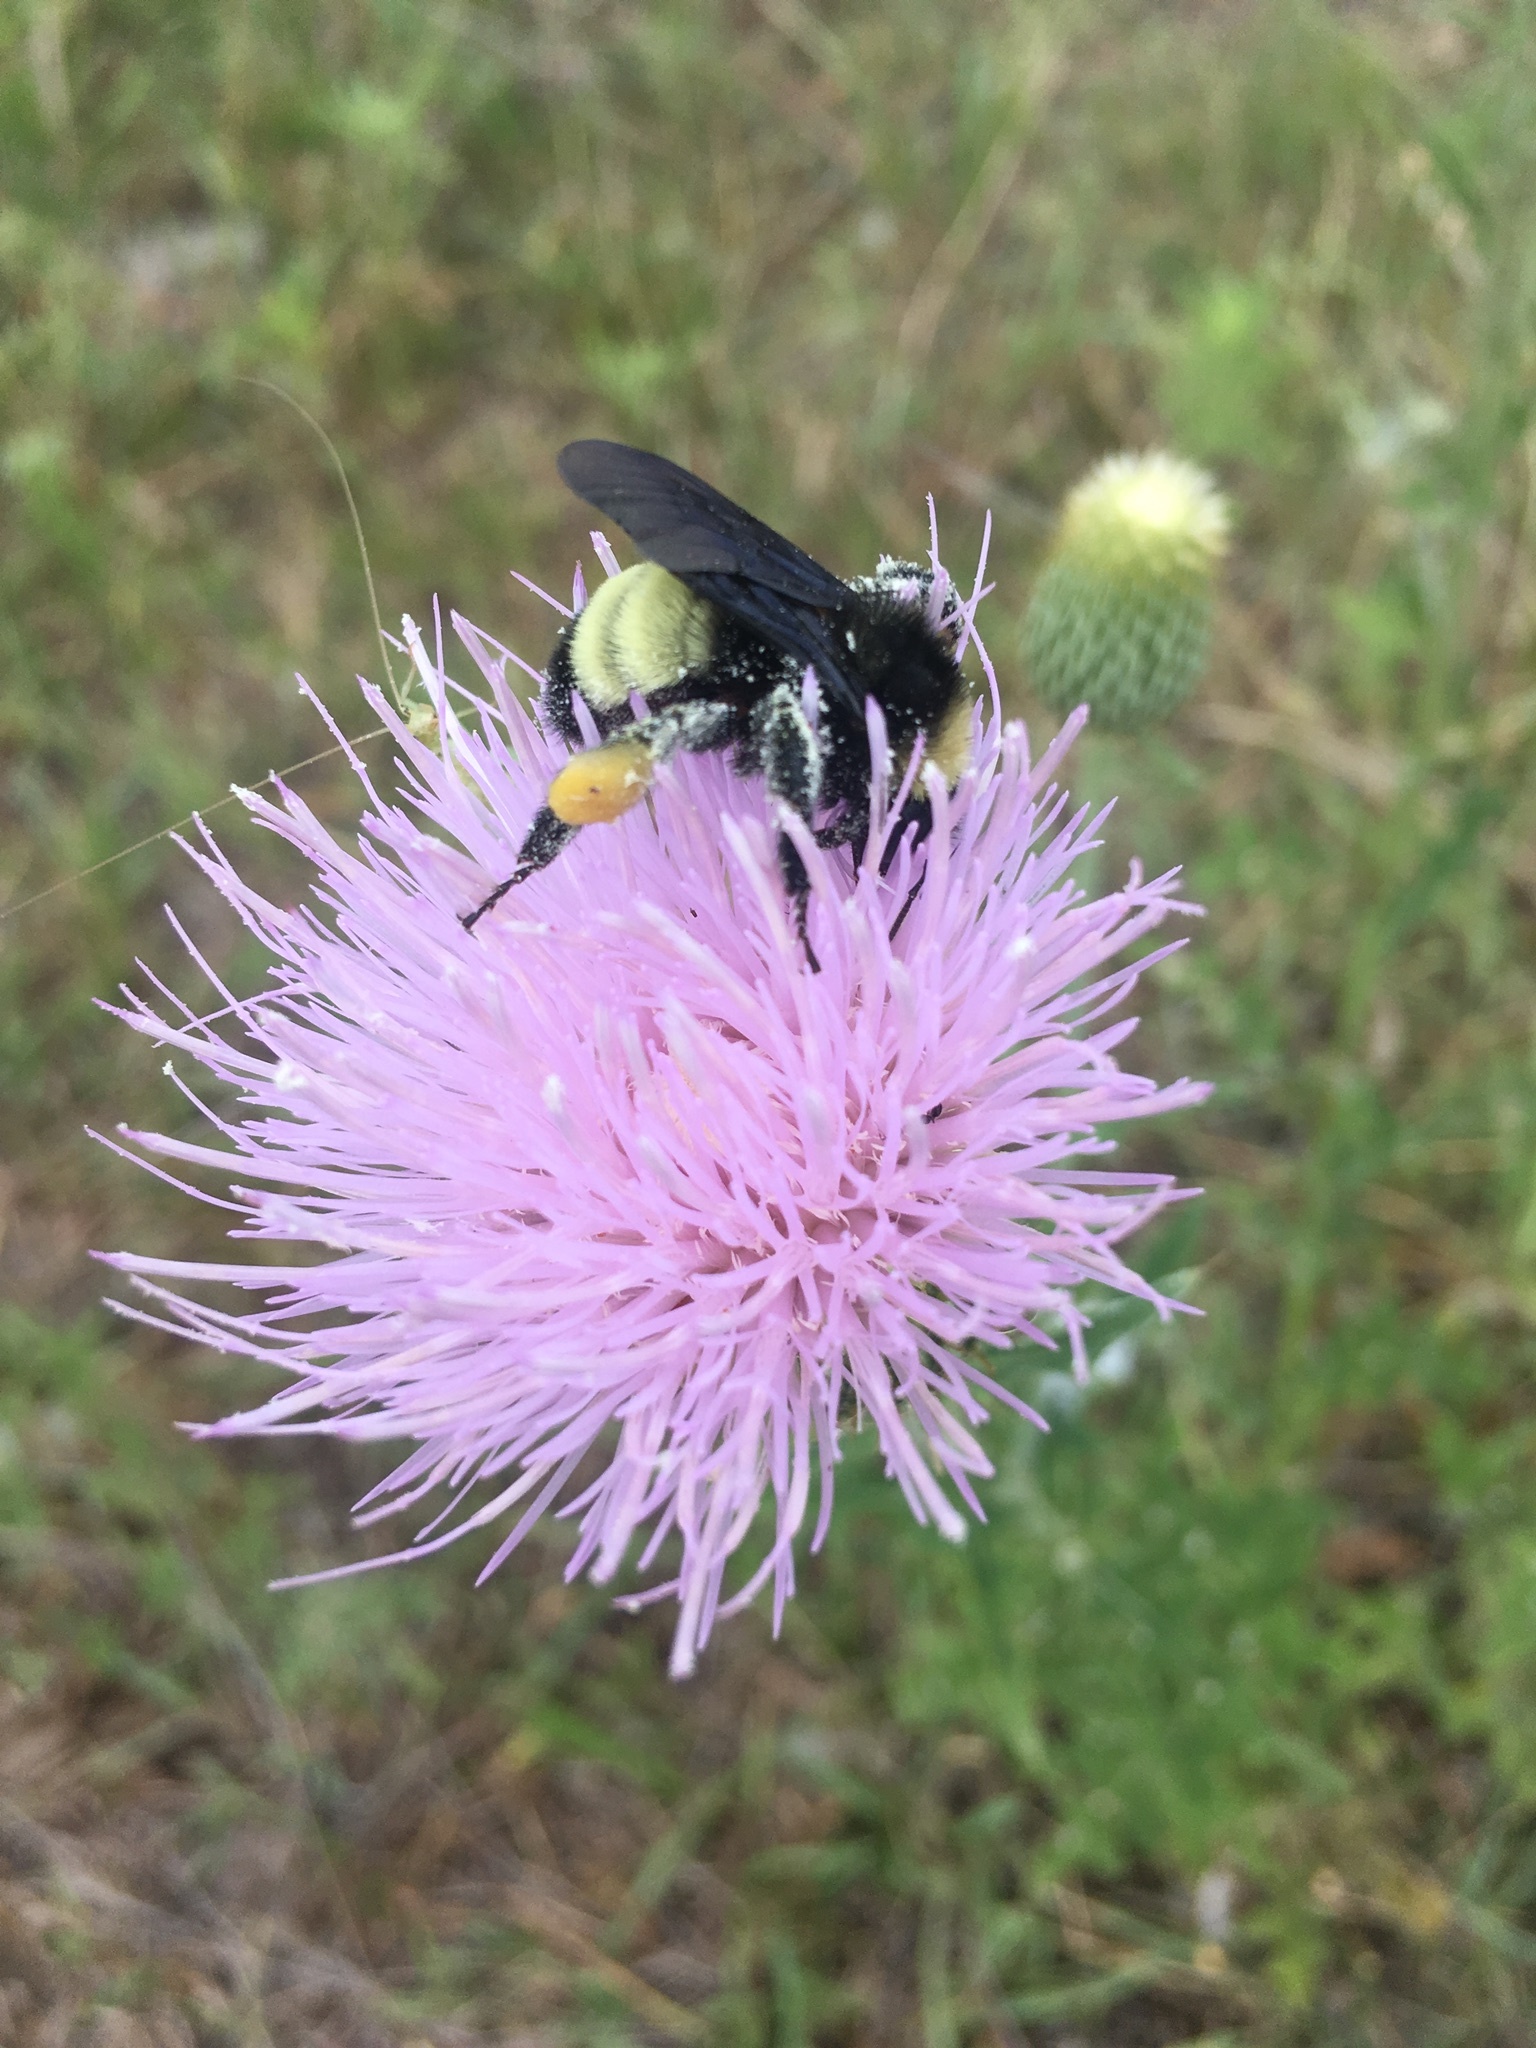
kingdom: Animalia
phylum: Arthropoda
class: Insecta
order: Hymenoptera
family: Apidae
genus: Bombus
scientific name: Bombus pensylvanicus
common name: Bumble bee
